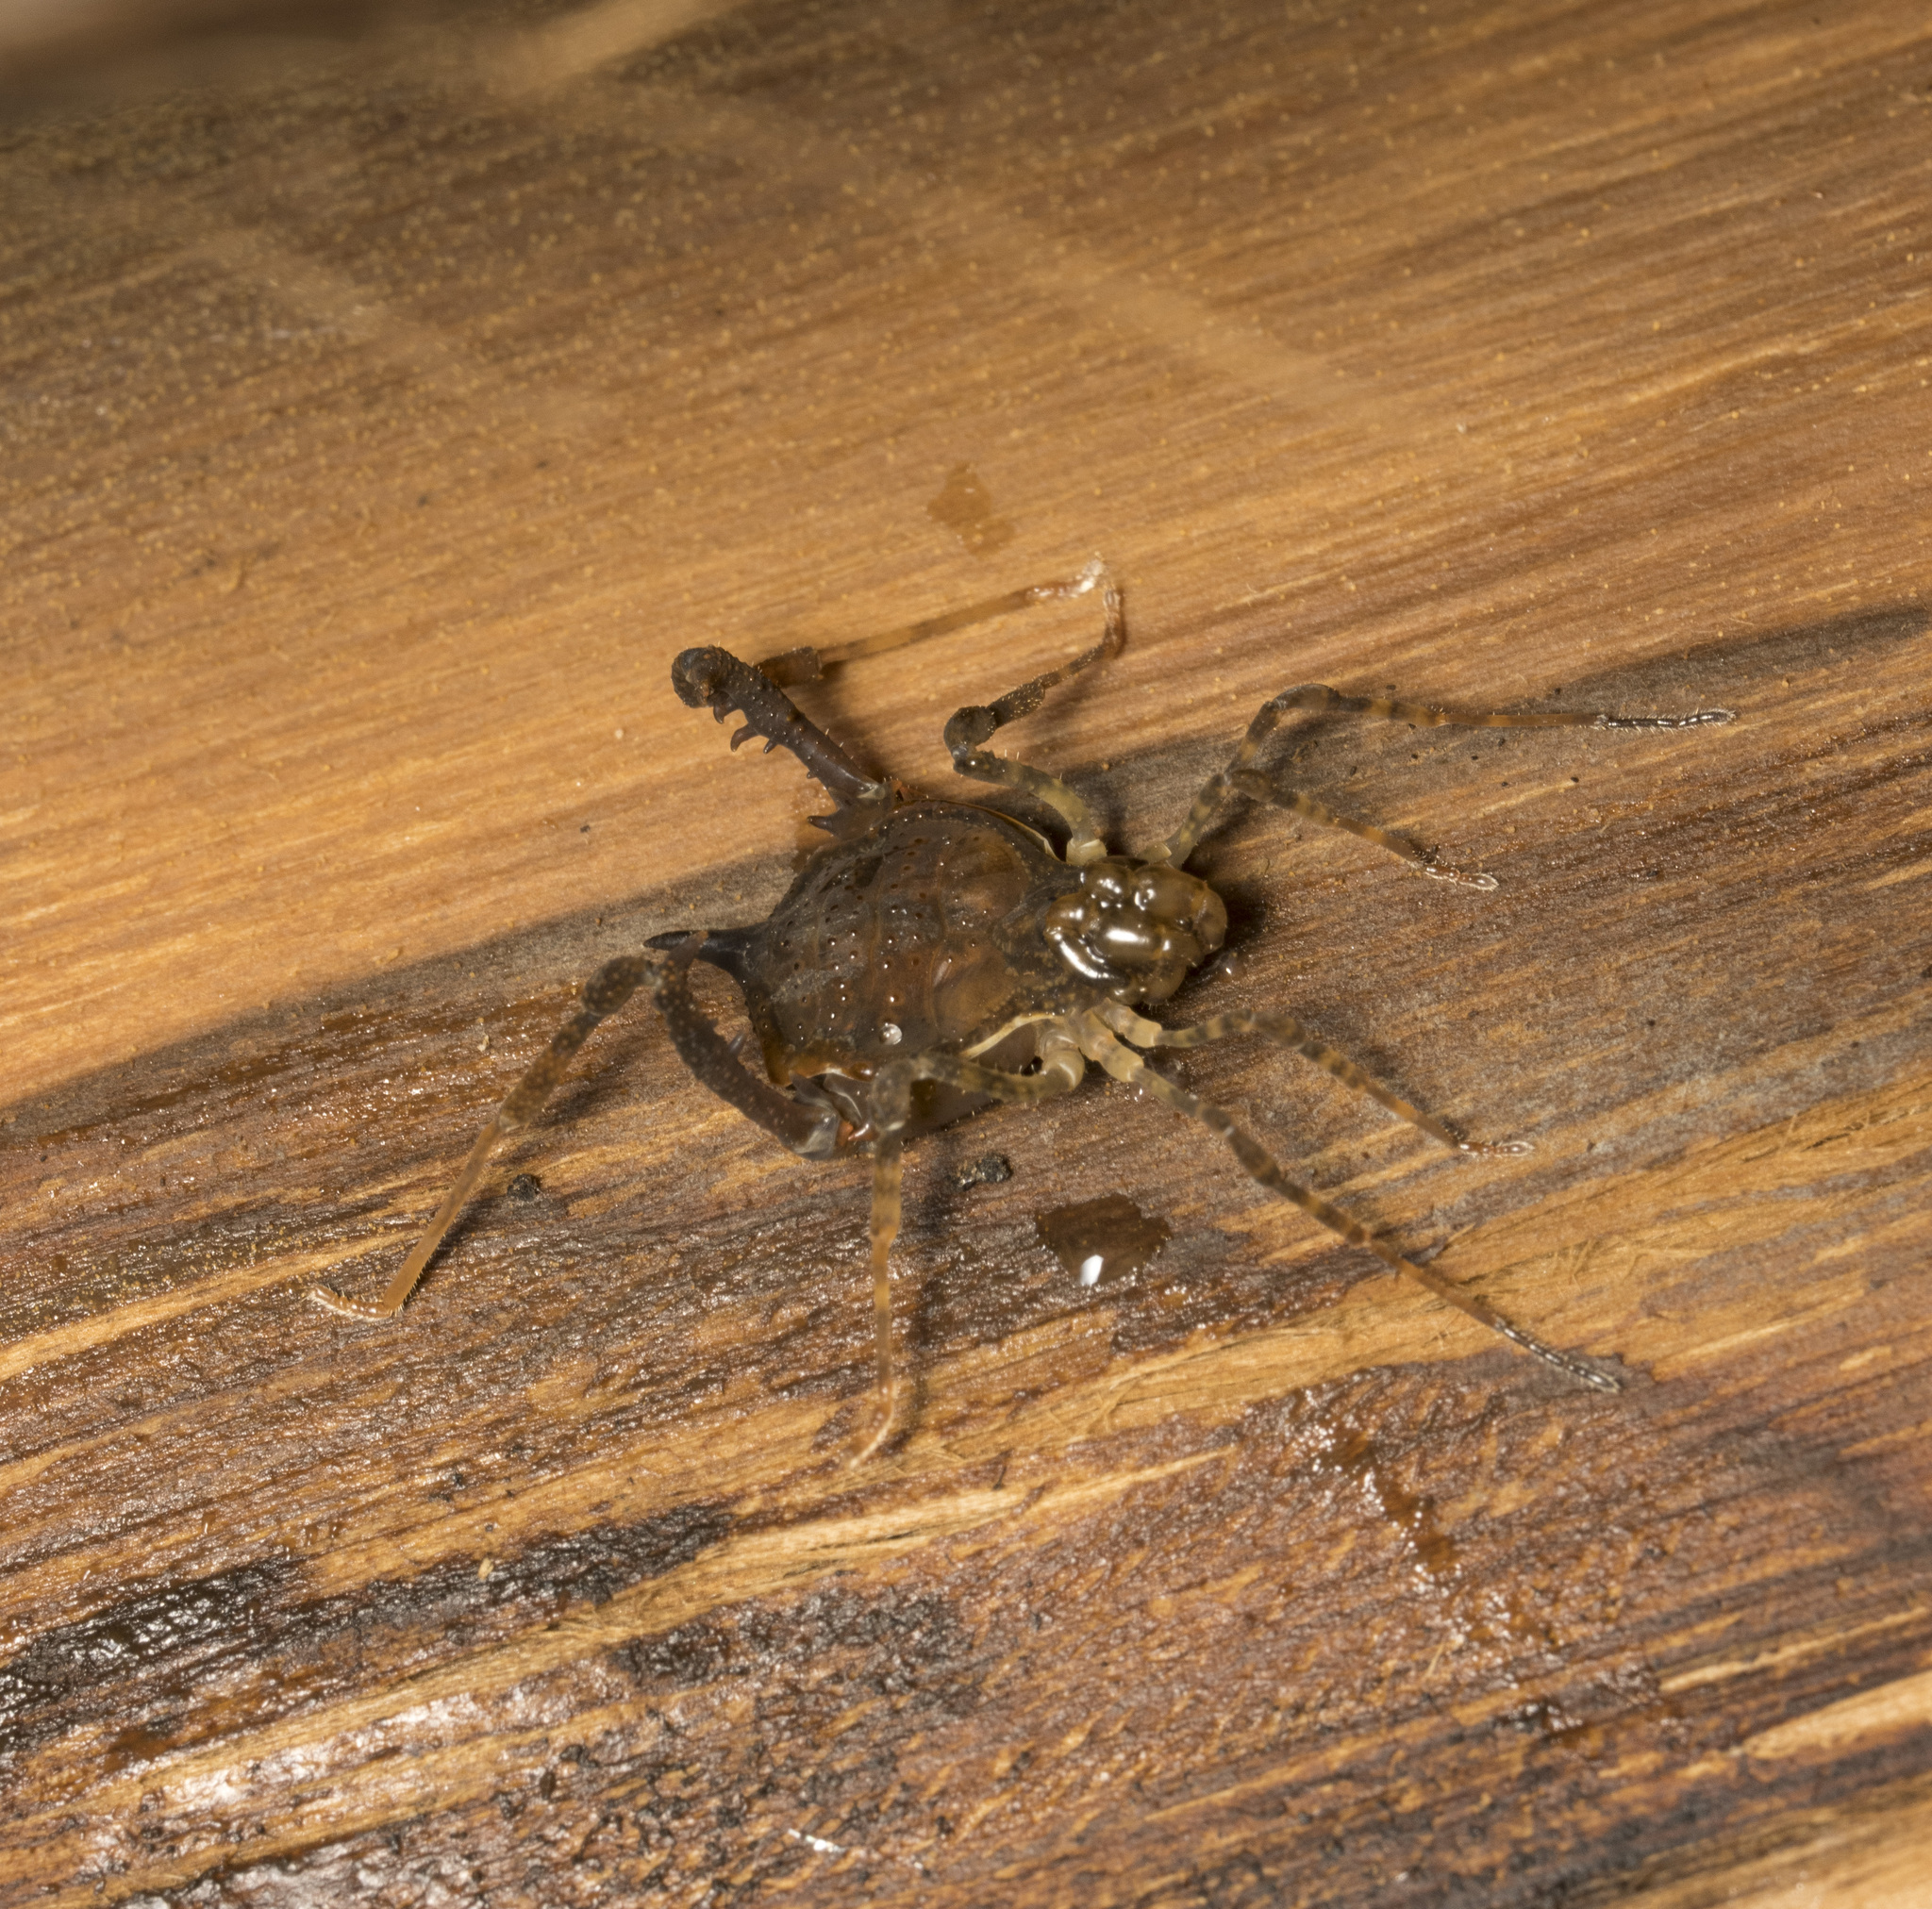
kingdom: Animalia
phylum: Arthropoda
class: Arachnida
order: Opiliones
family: Gonyleptidae
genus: Acanthoprocta
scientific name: Acanthoprocta pustulata
